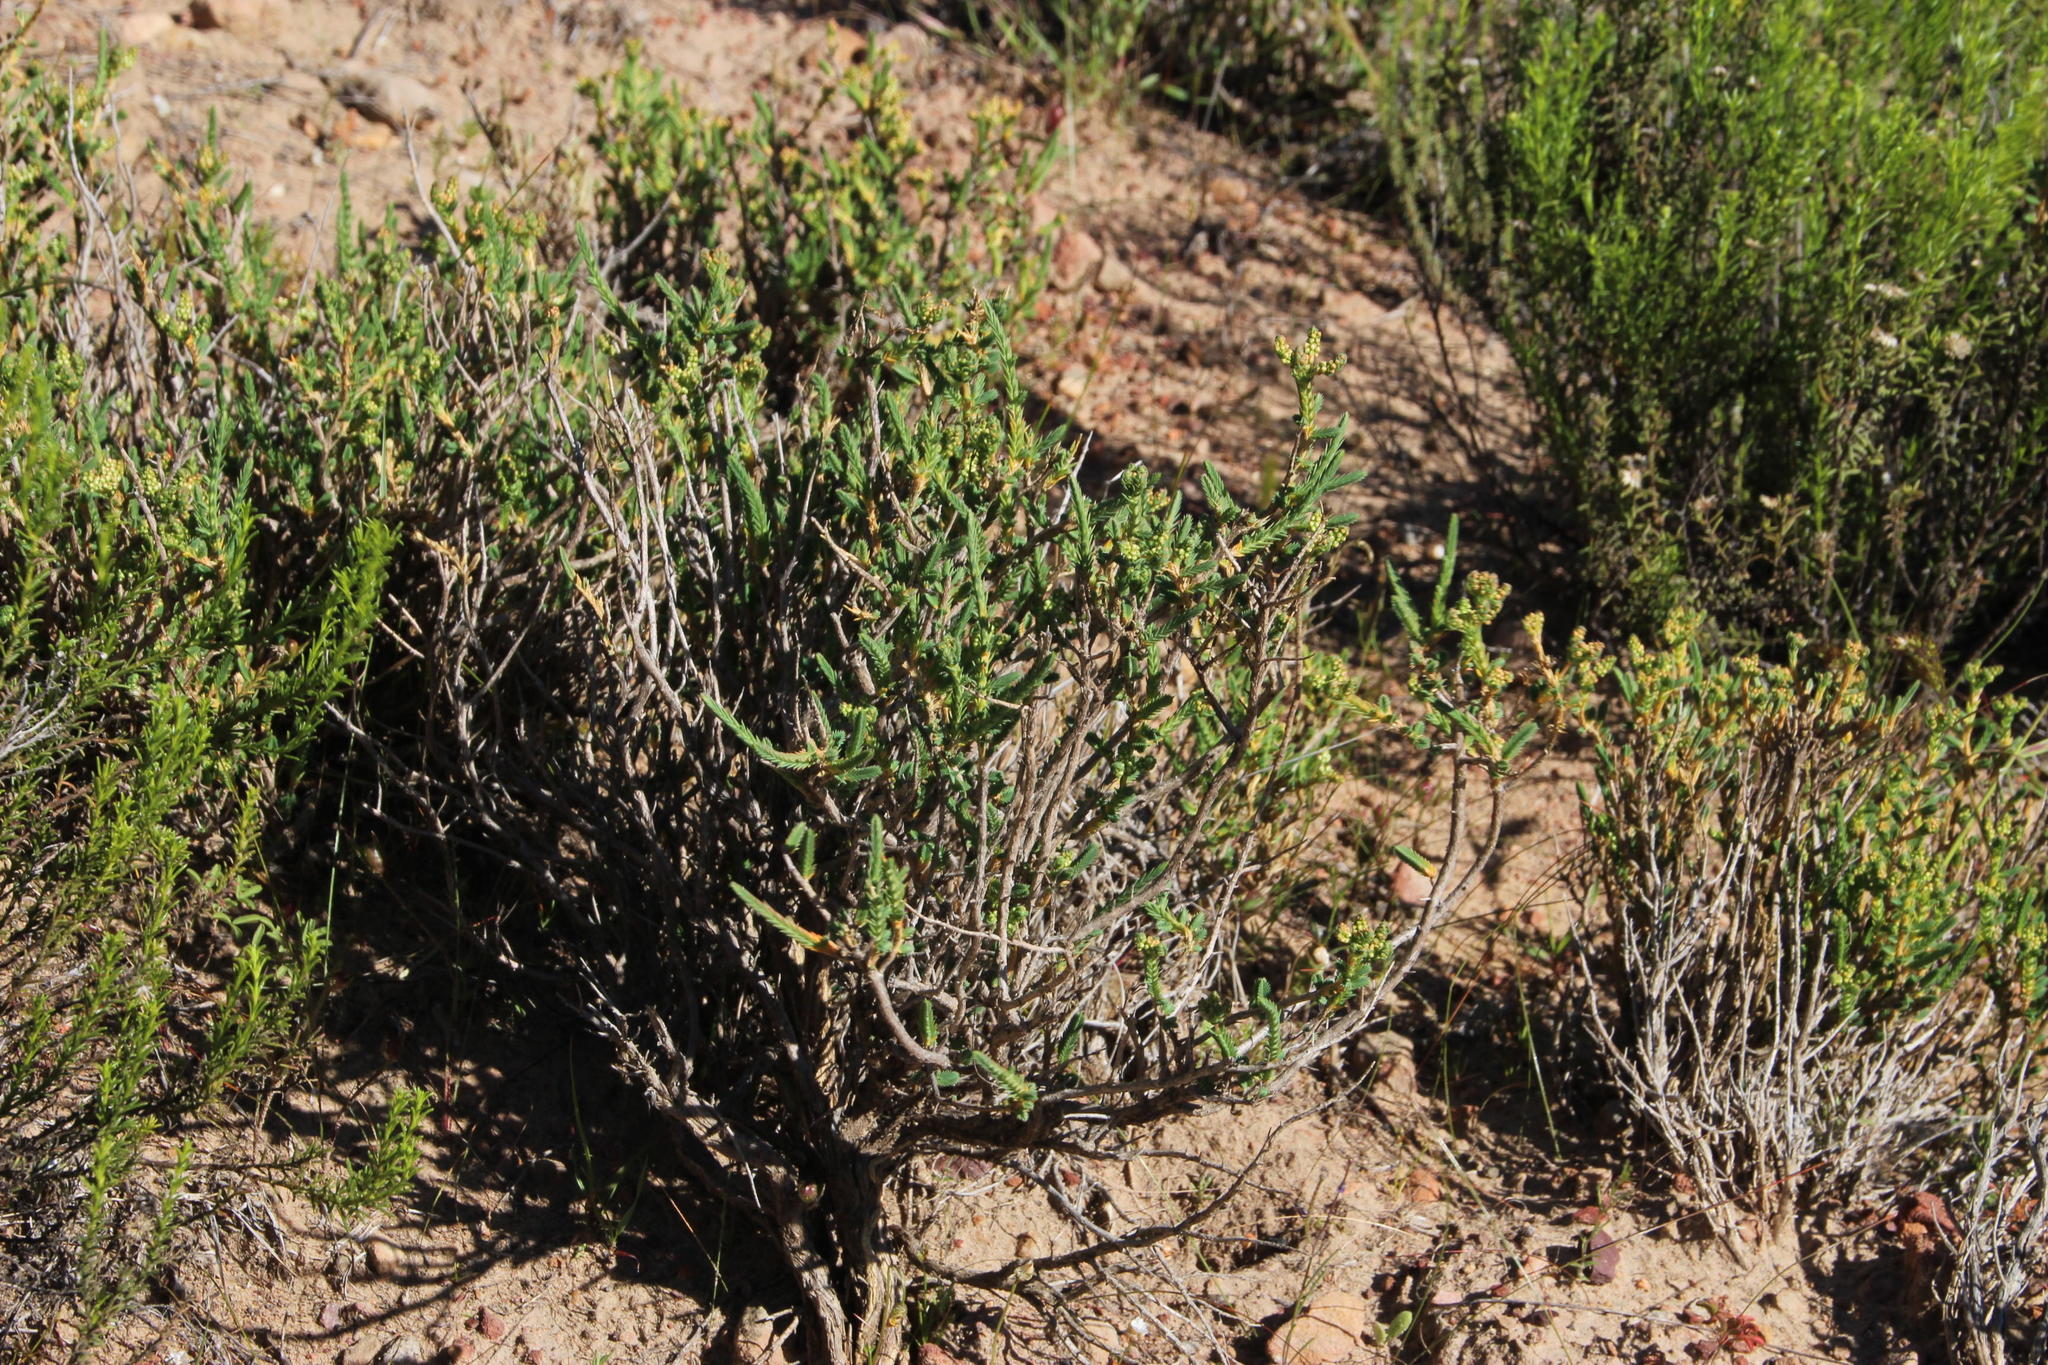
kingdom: Plantae
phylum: Tracheophyta
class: Magnoliopsida
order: Caryophyllales
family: Molluginaceae
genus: Psammotropha
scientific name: Psammotropha quadrangularis
